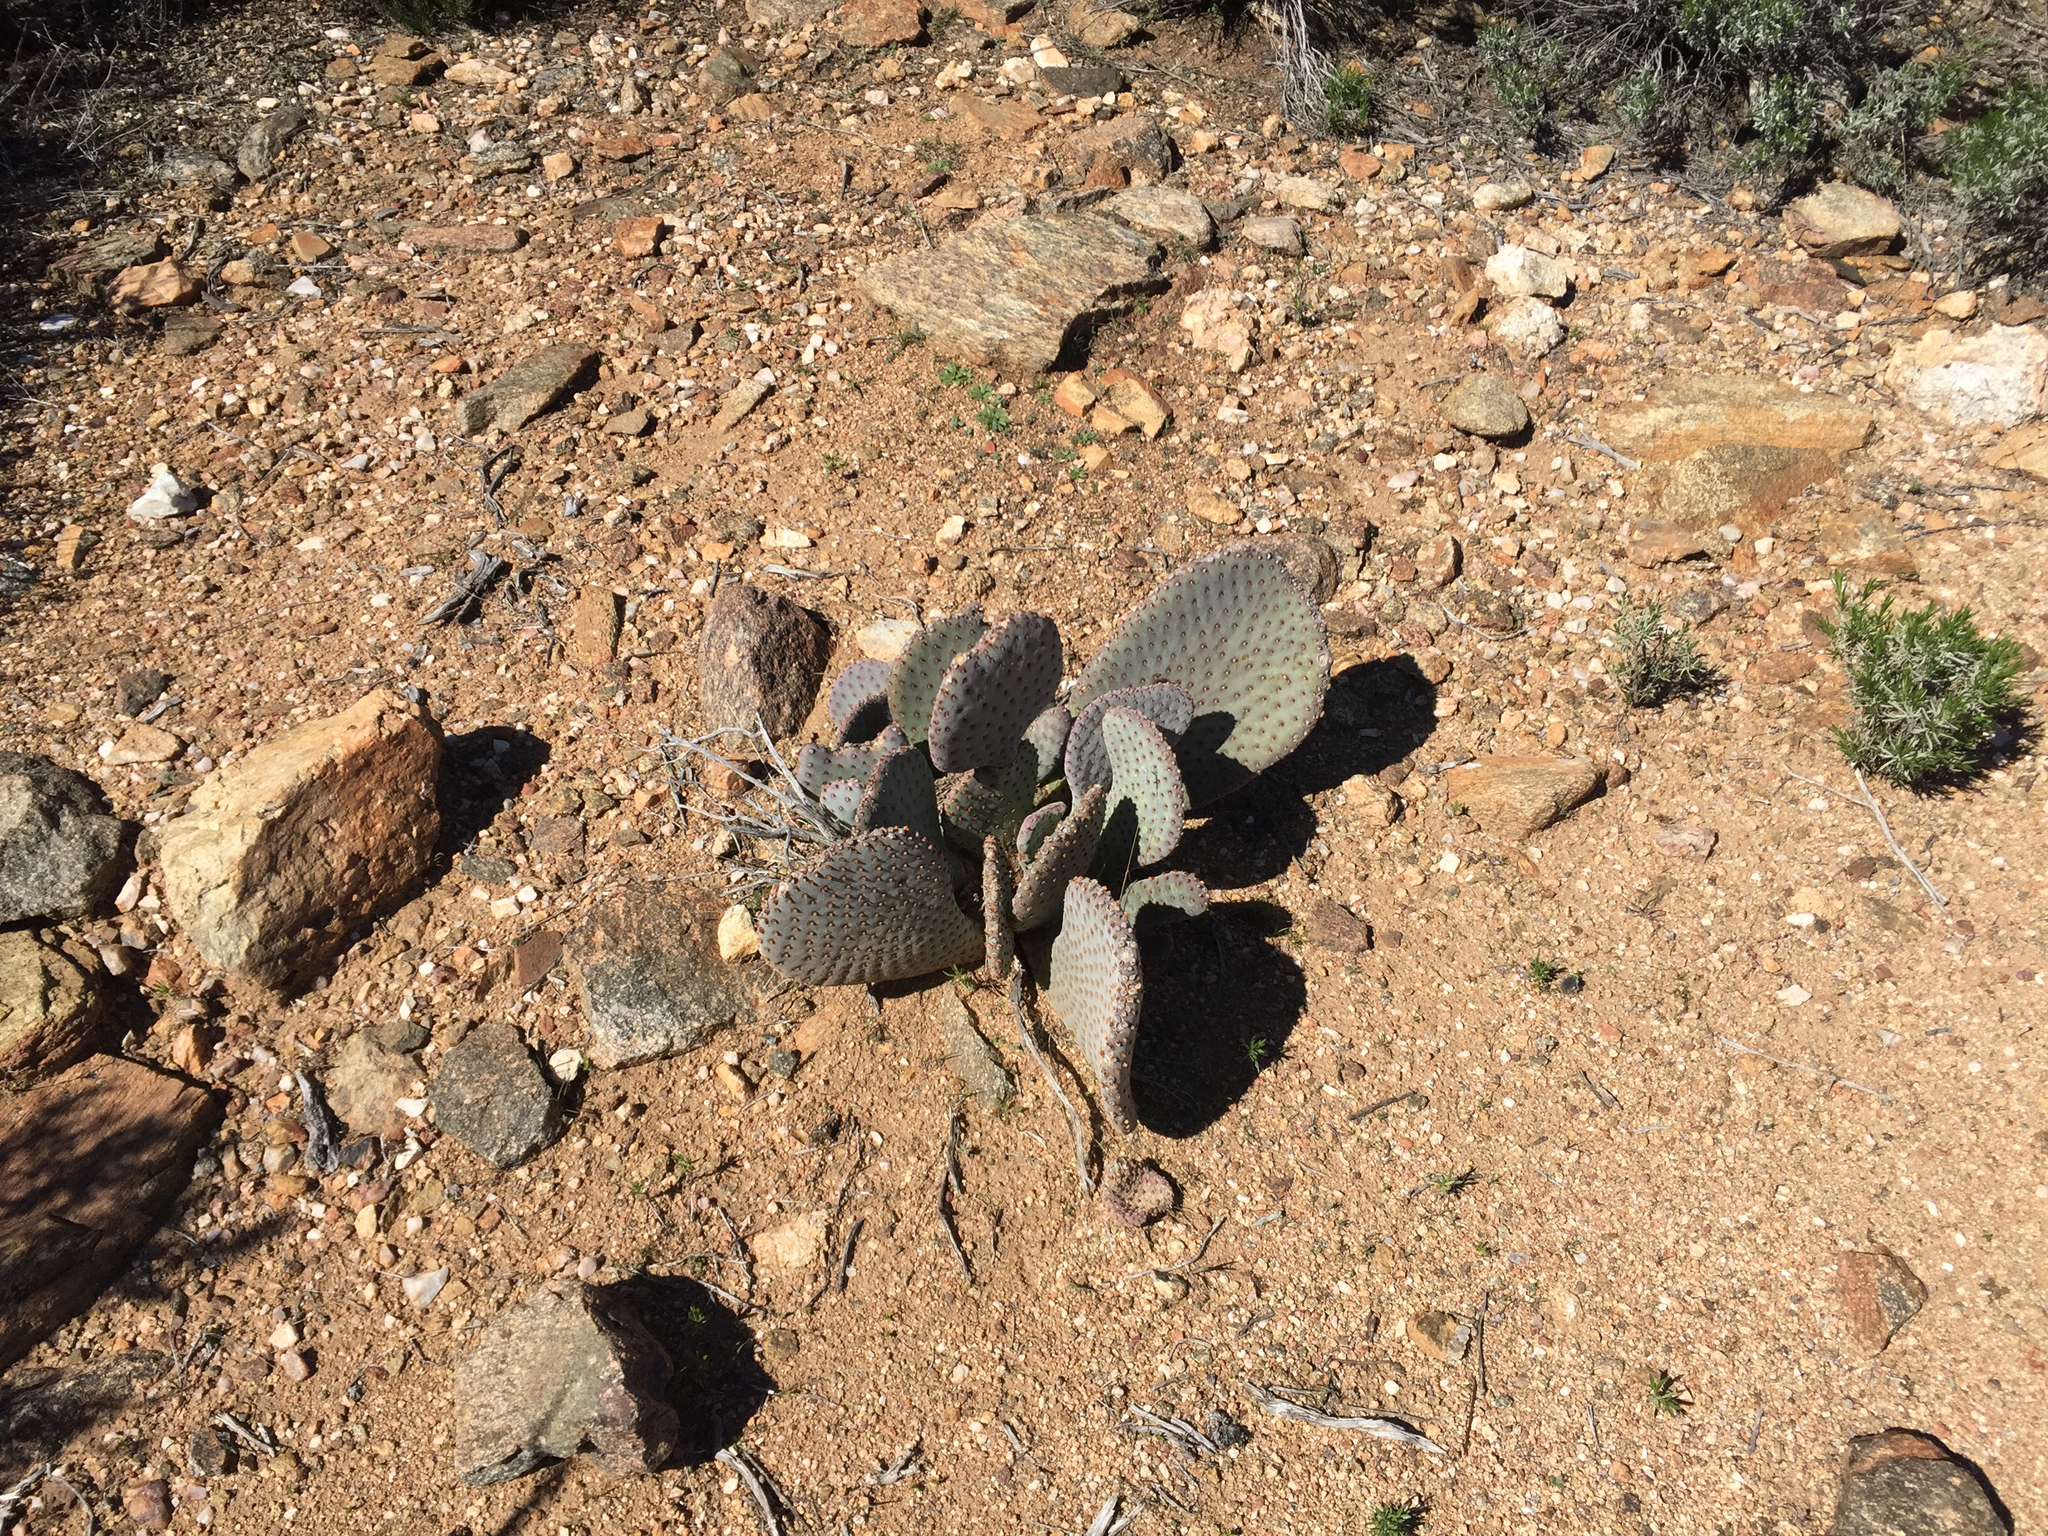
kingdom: Plantae
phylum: Tracheophyta
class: Magnoliopsida
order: Caryophyllales
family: Cactaceae
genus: Opuntia
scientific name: Opuntia basilaris
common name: Beavertail prickly-pear
